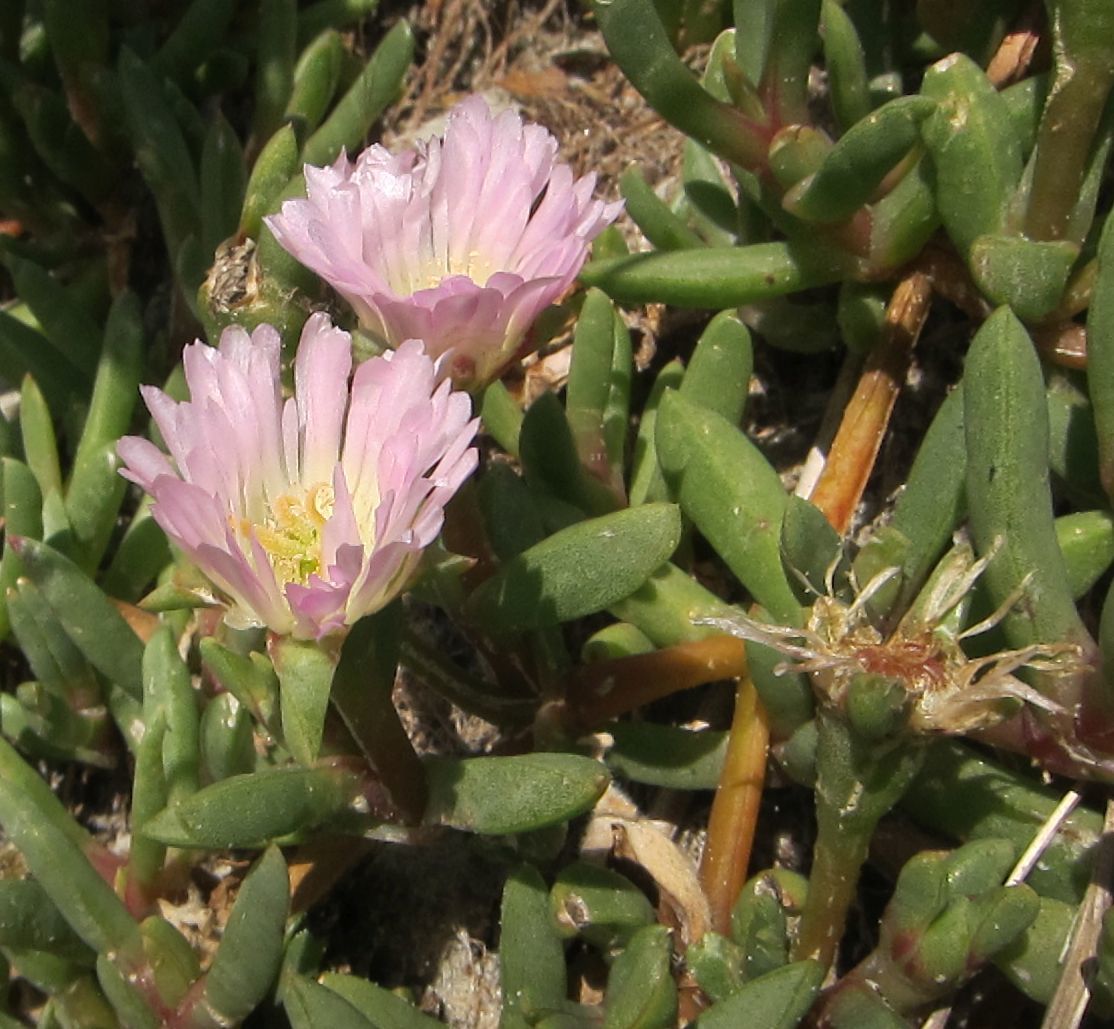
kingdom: Plantae
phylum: Tracheophyta
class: Magnoliopsida
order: Caryophyllales
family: Aizoaceae
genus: Disphyma
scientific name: Disphyma australe
